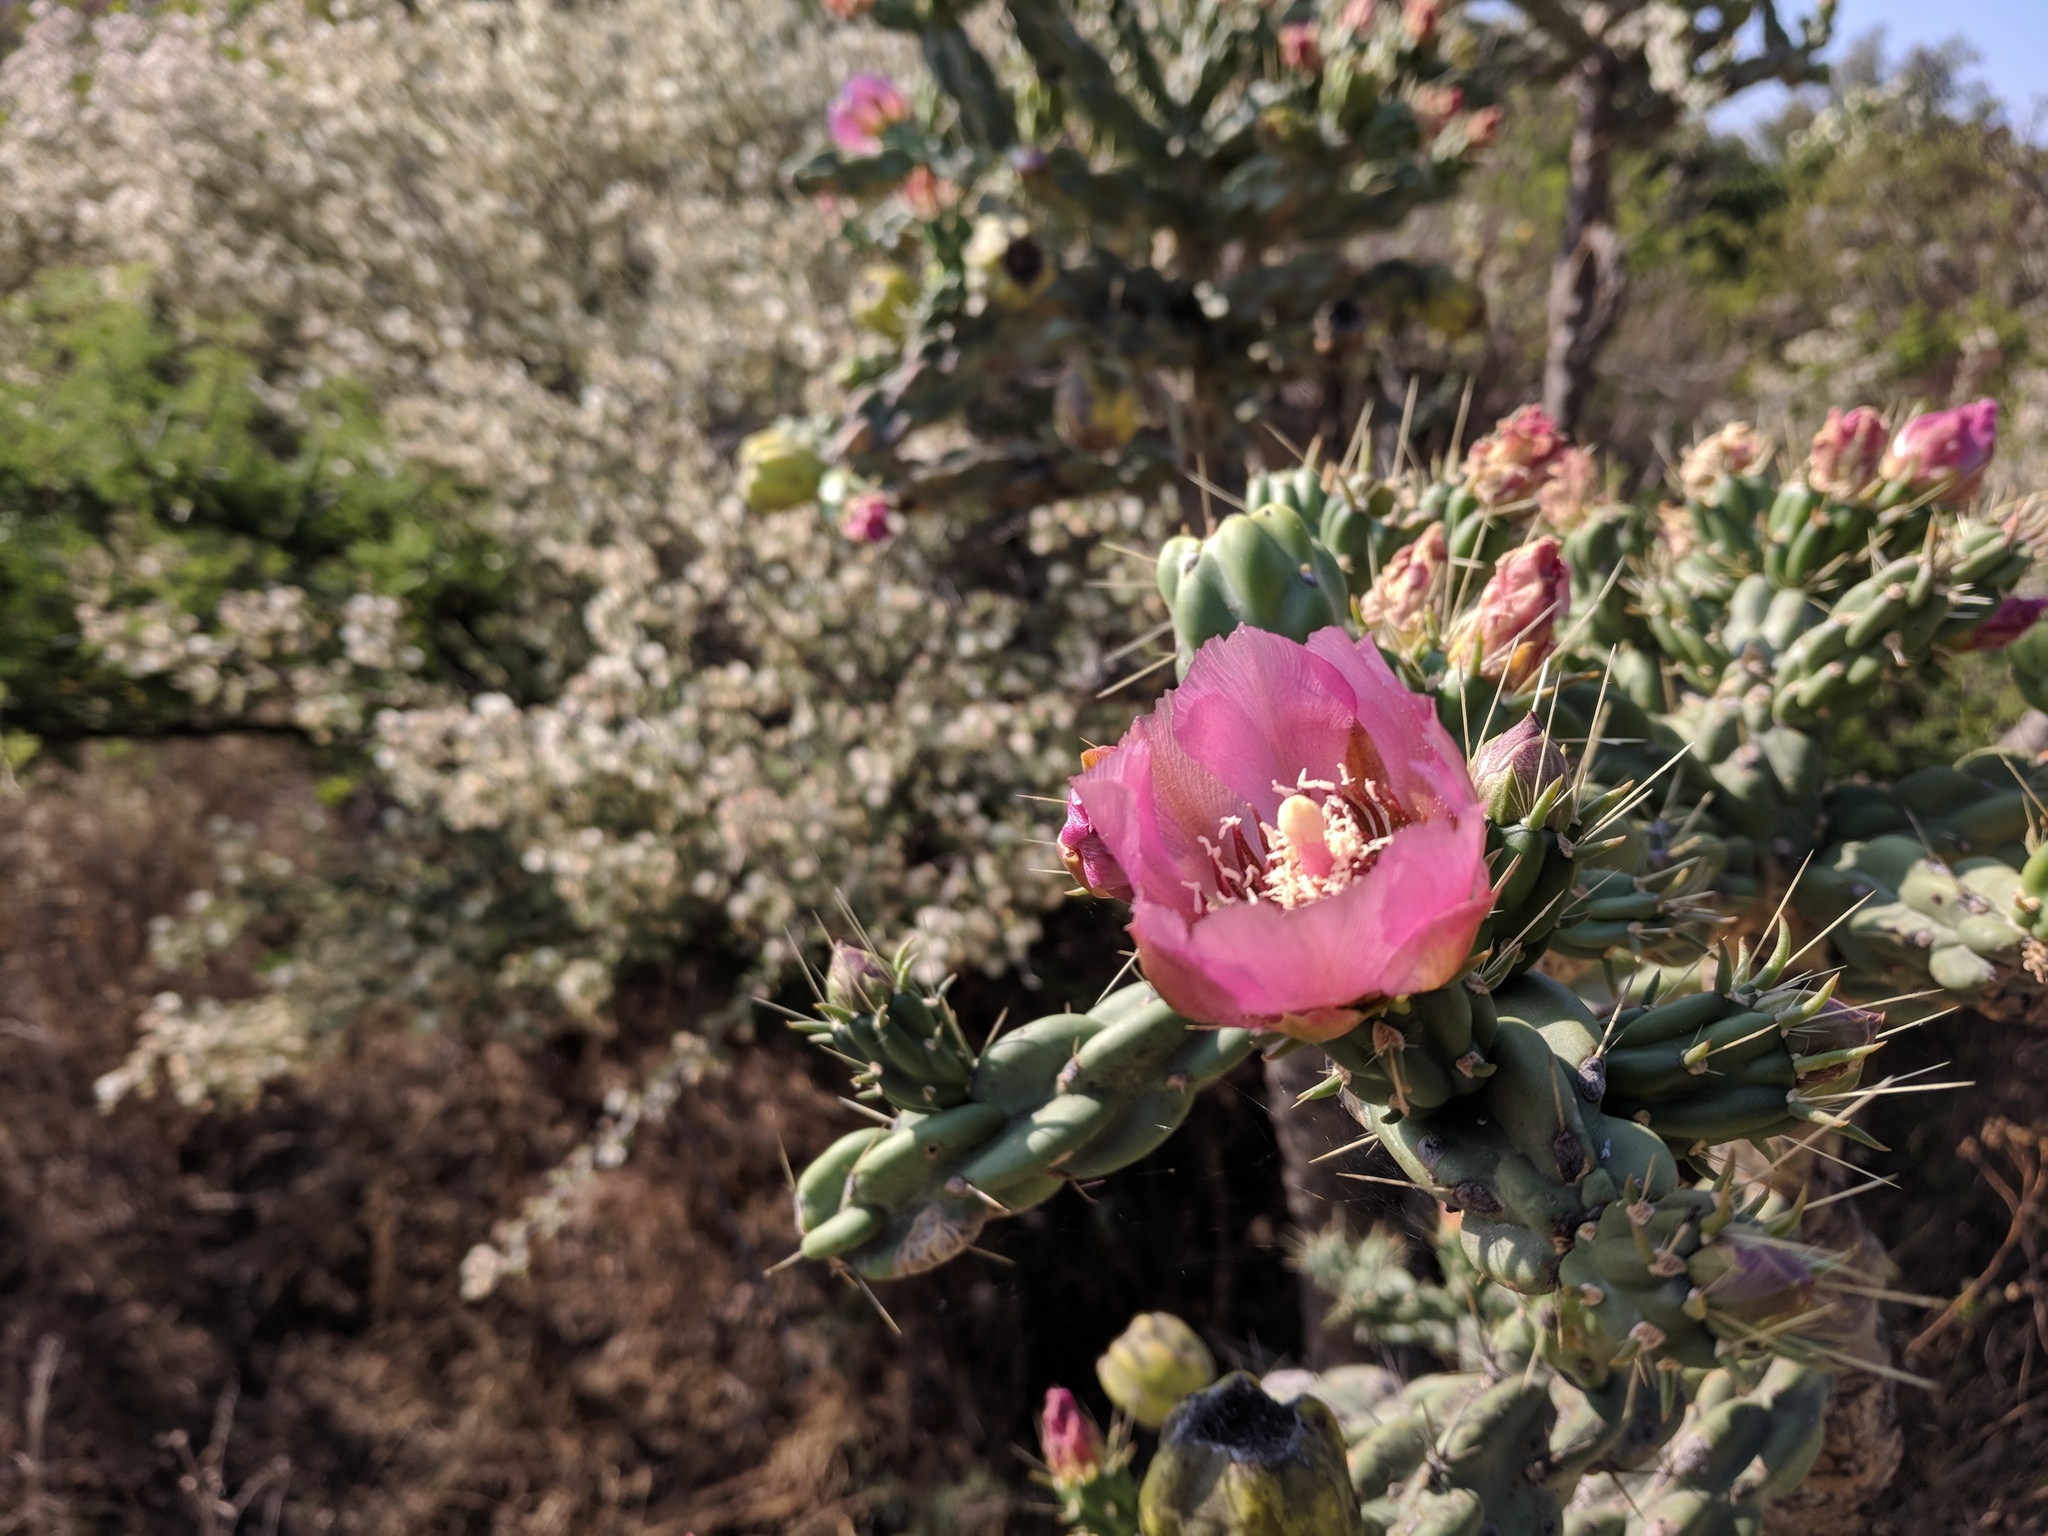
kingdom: Plantae
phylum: Tracheophyta
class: Magnoliopsida
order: Caryophyllales
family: Cactaceae
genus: Cylindropuntia
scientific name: Cylindropuntia imbricata
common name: Candelabrum cactus
